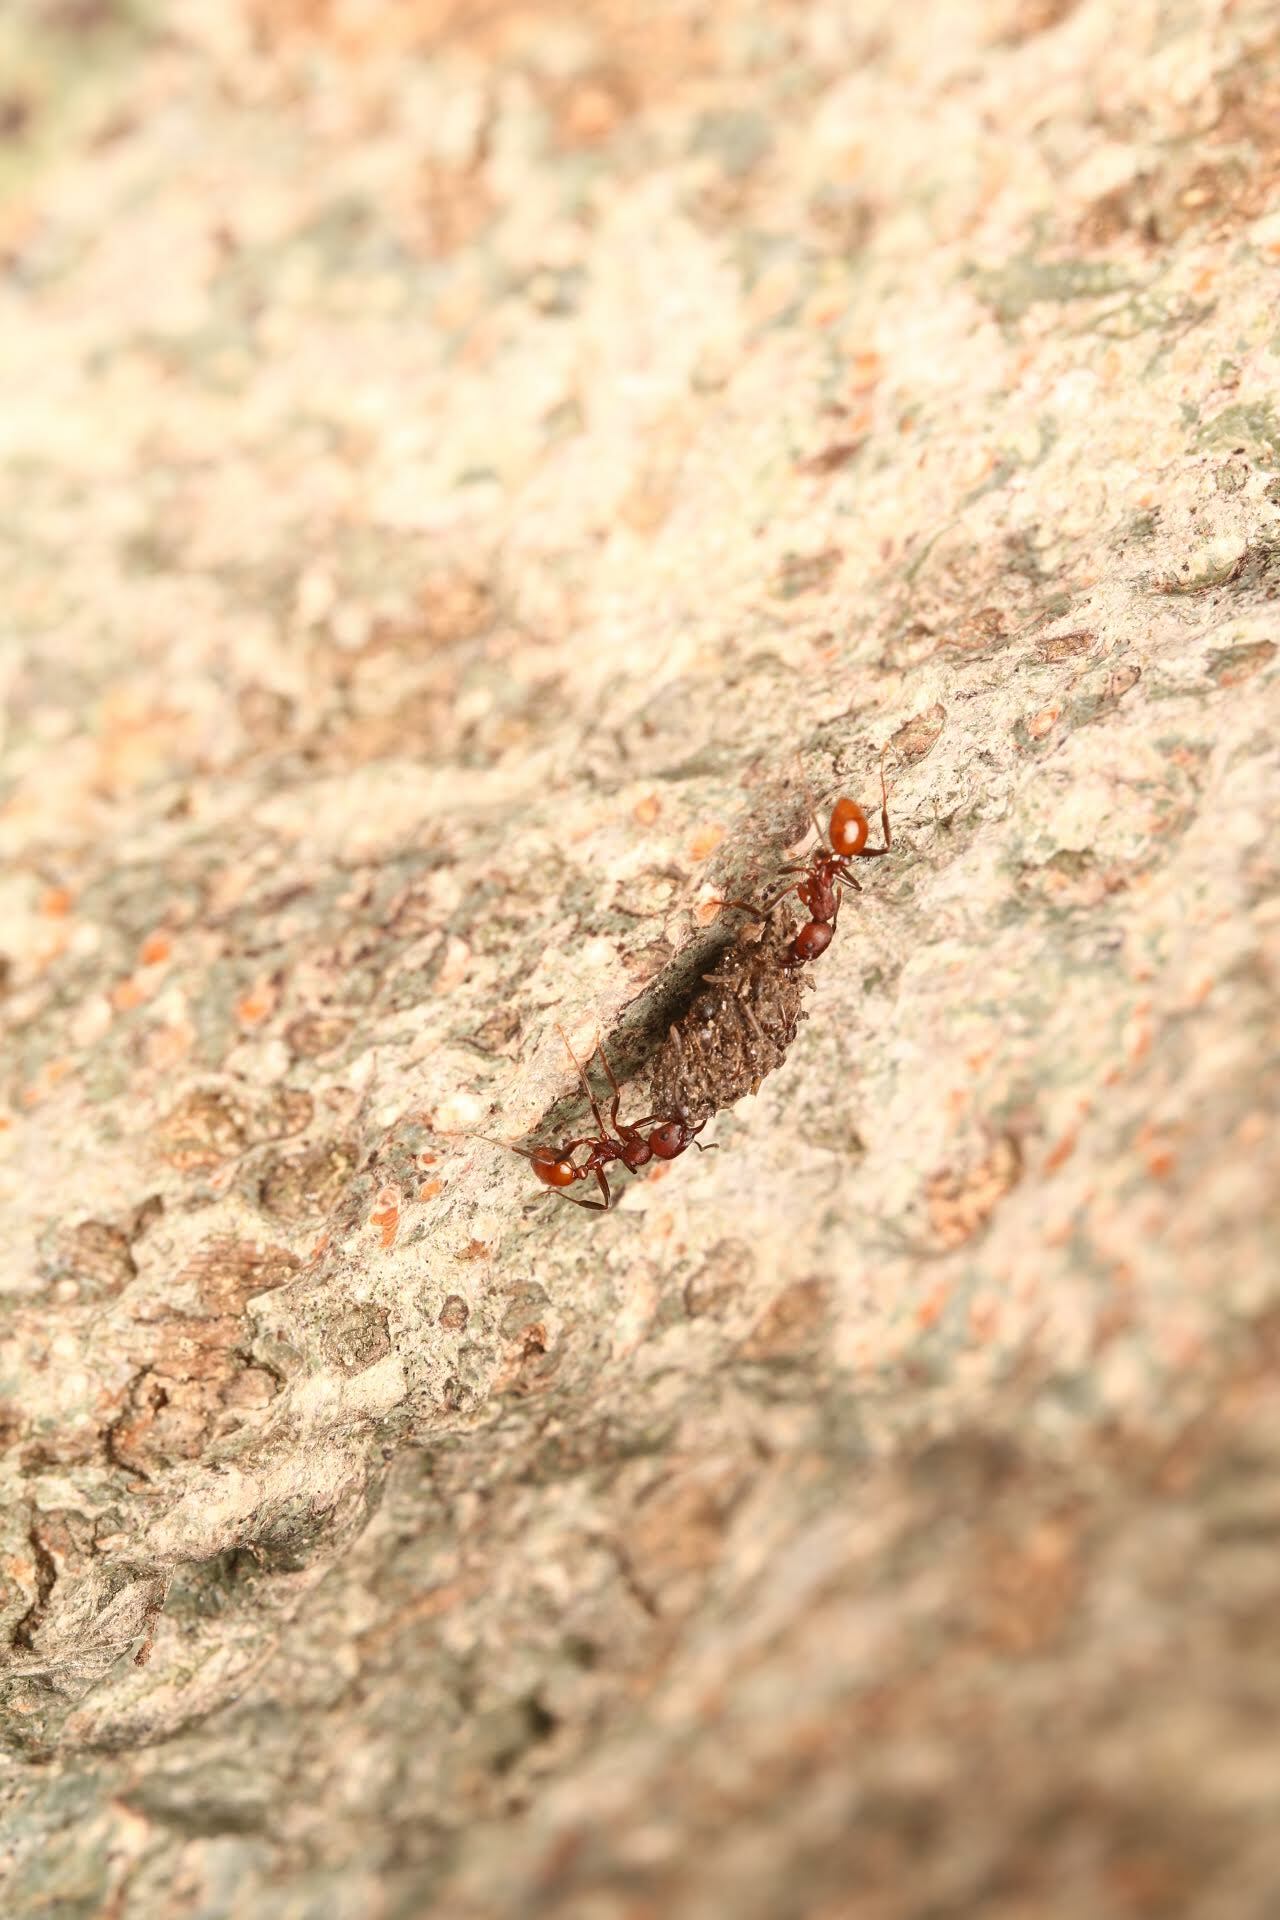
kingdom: Animalia
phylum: Arthropoda
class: Insecta
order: Hymenoptera
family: Formicidae
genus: Aphaenogaster
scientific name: Aphaenogaster tennesseensis
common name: Tennessee thread-waisted ant
